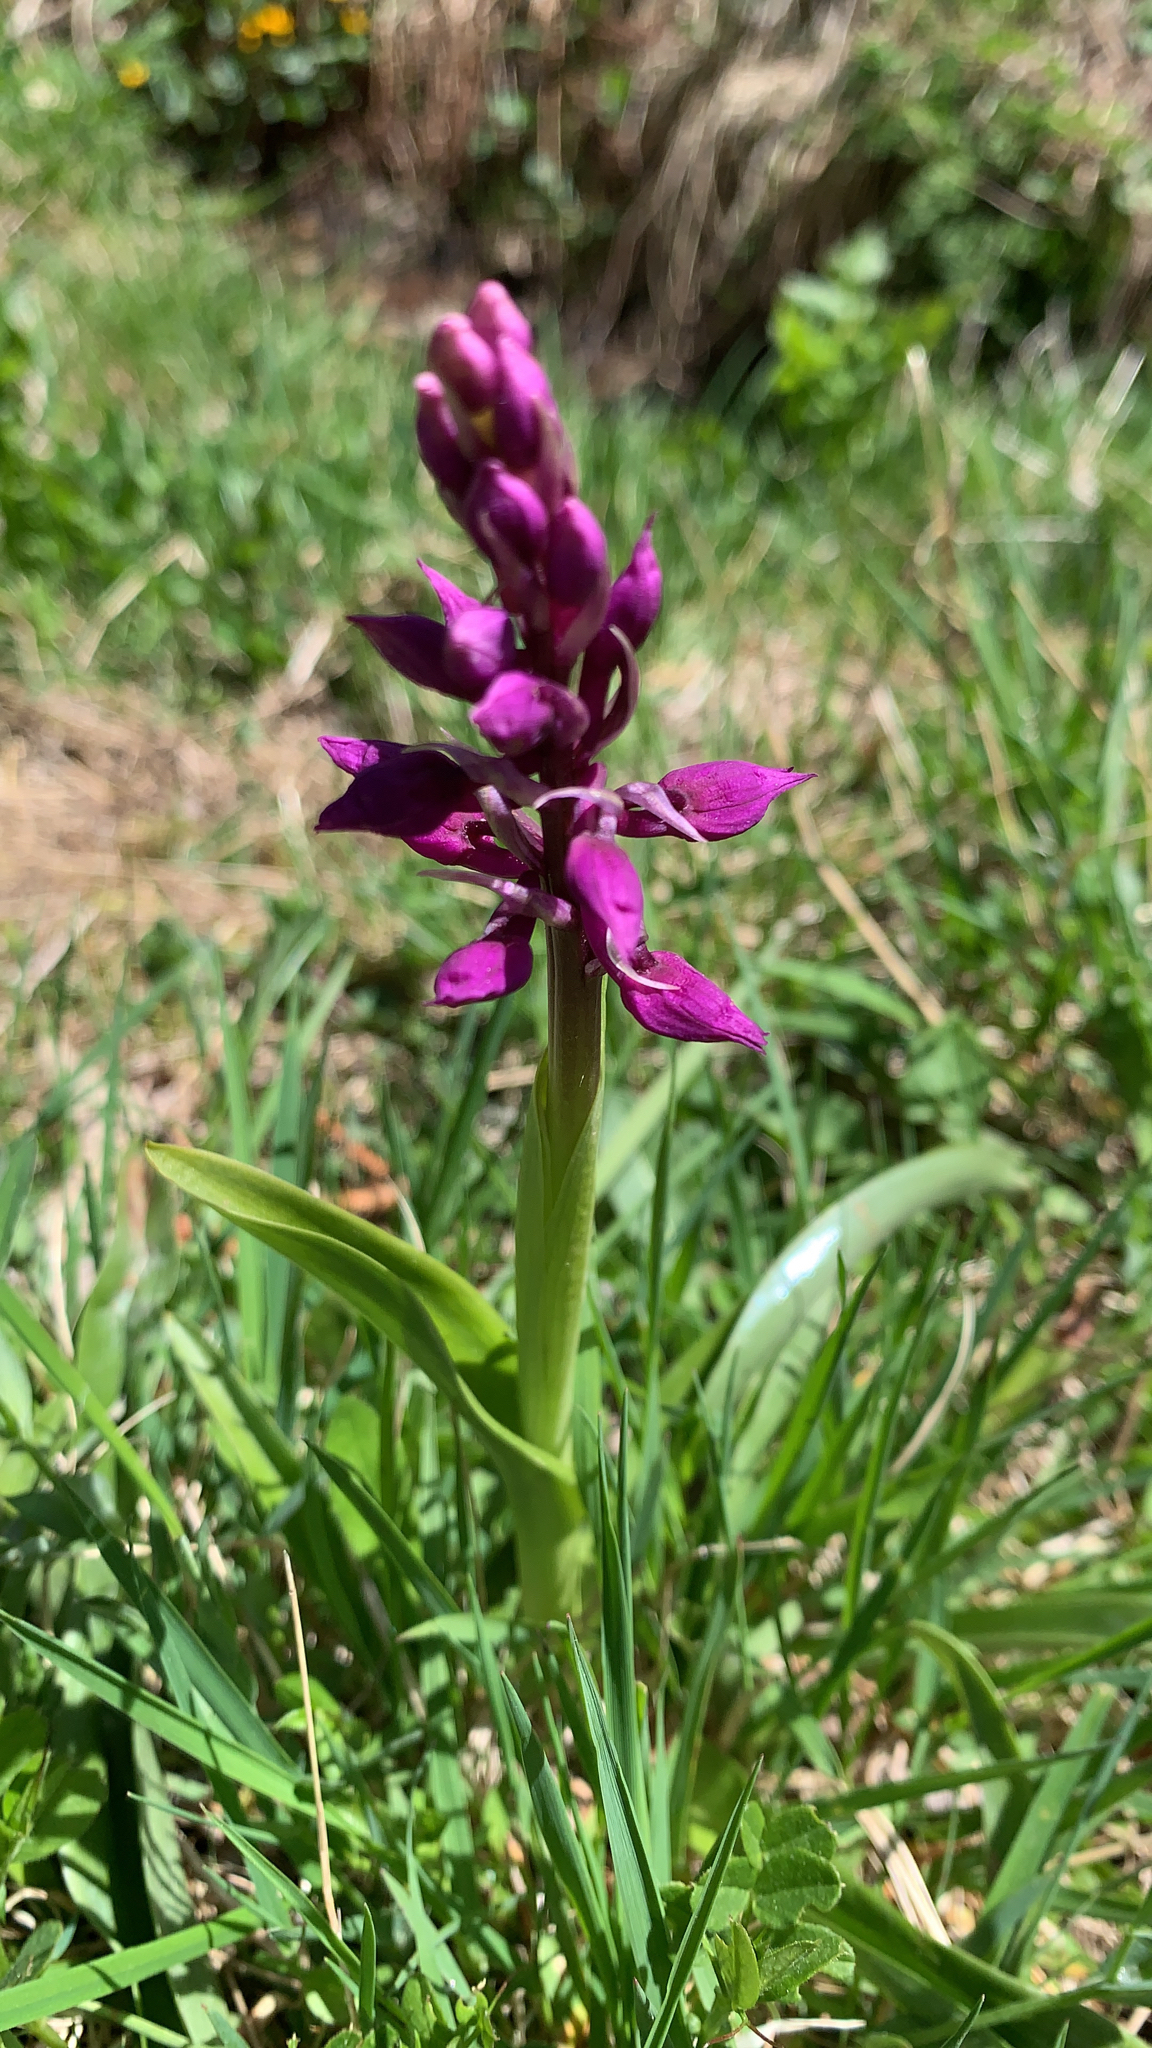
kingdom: Plantae
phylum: Tracheophyta
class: Liliopsida
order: Asparagales
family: Orchidaceae
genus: Orchis
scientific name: Orchis mascula
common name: Early-purple orchid
